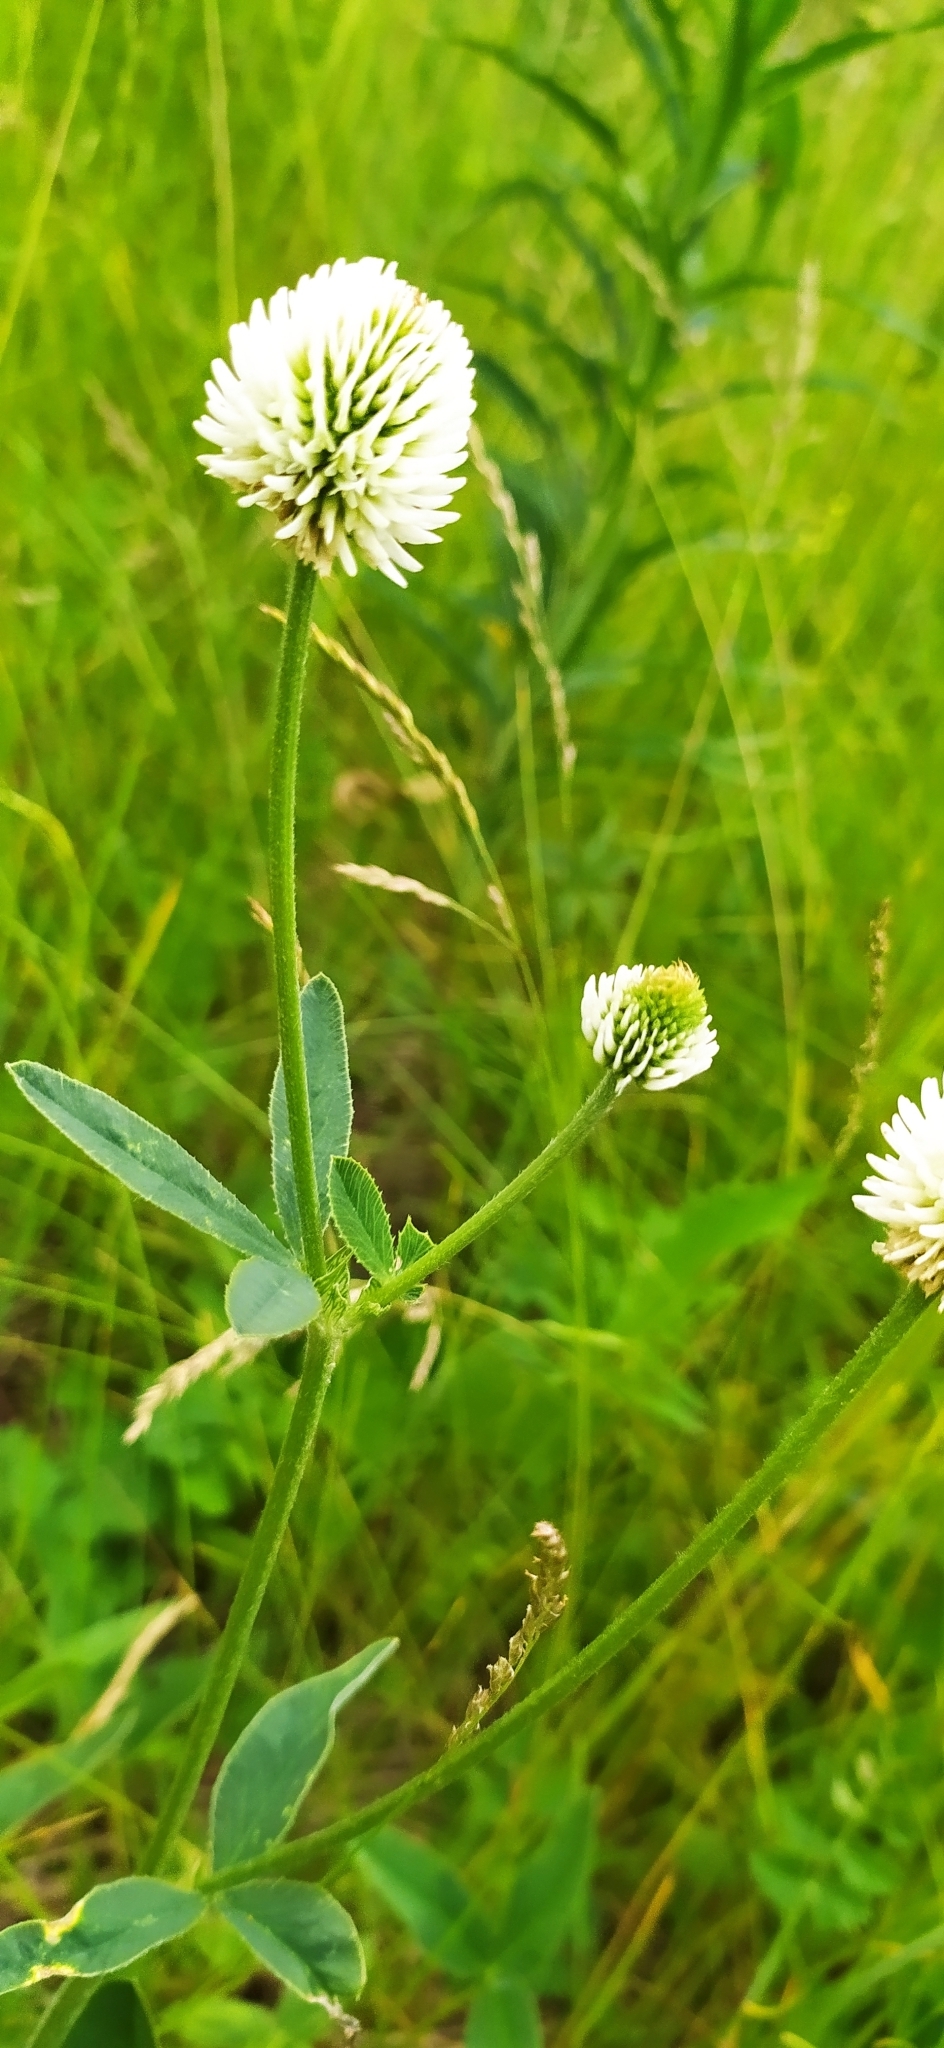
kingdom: Plantae
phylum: Tracheophyta
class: Magnoliopsida
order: Fabales
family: Fabaceae
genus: Trifolium
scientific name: Trifolium montanum
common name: Mountain clover
